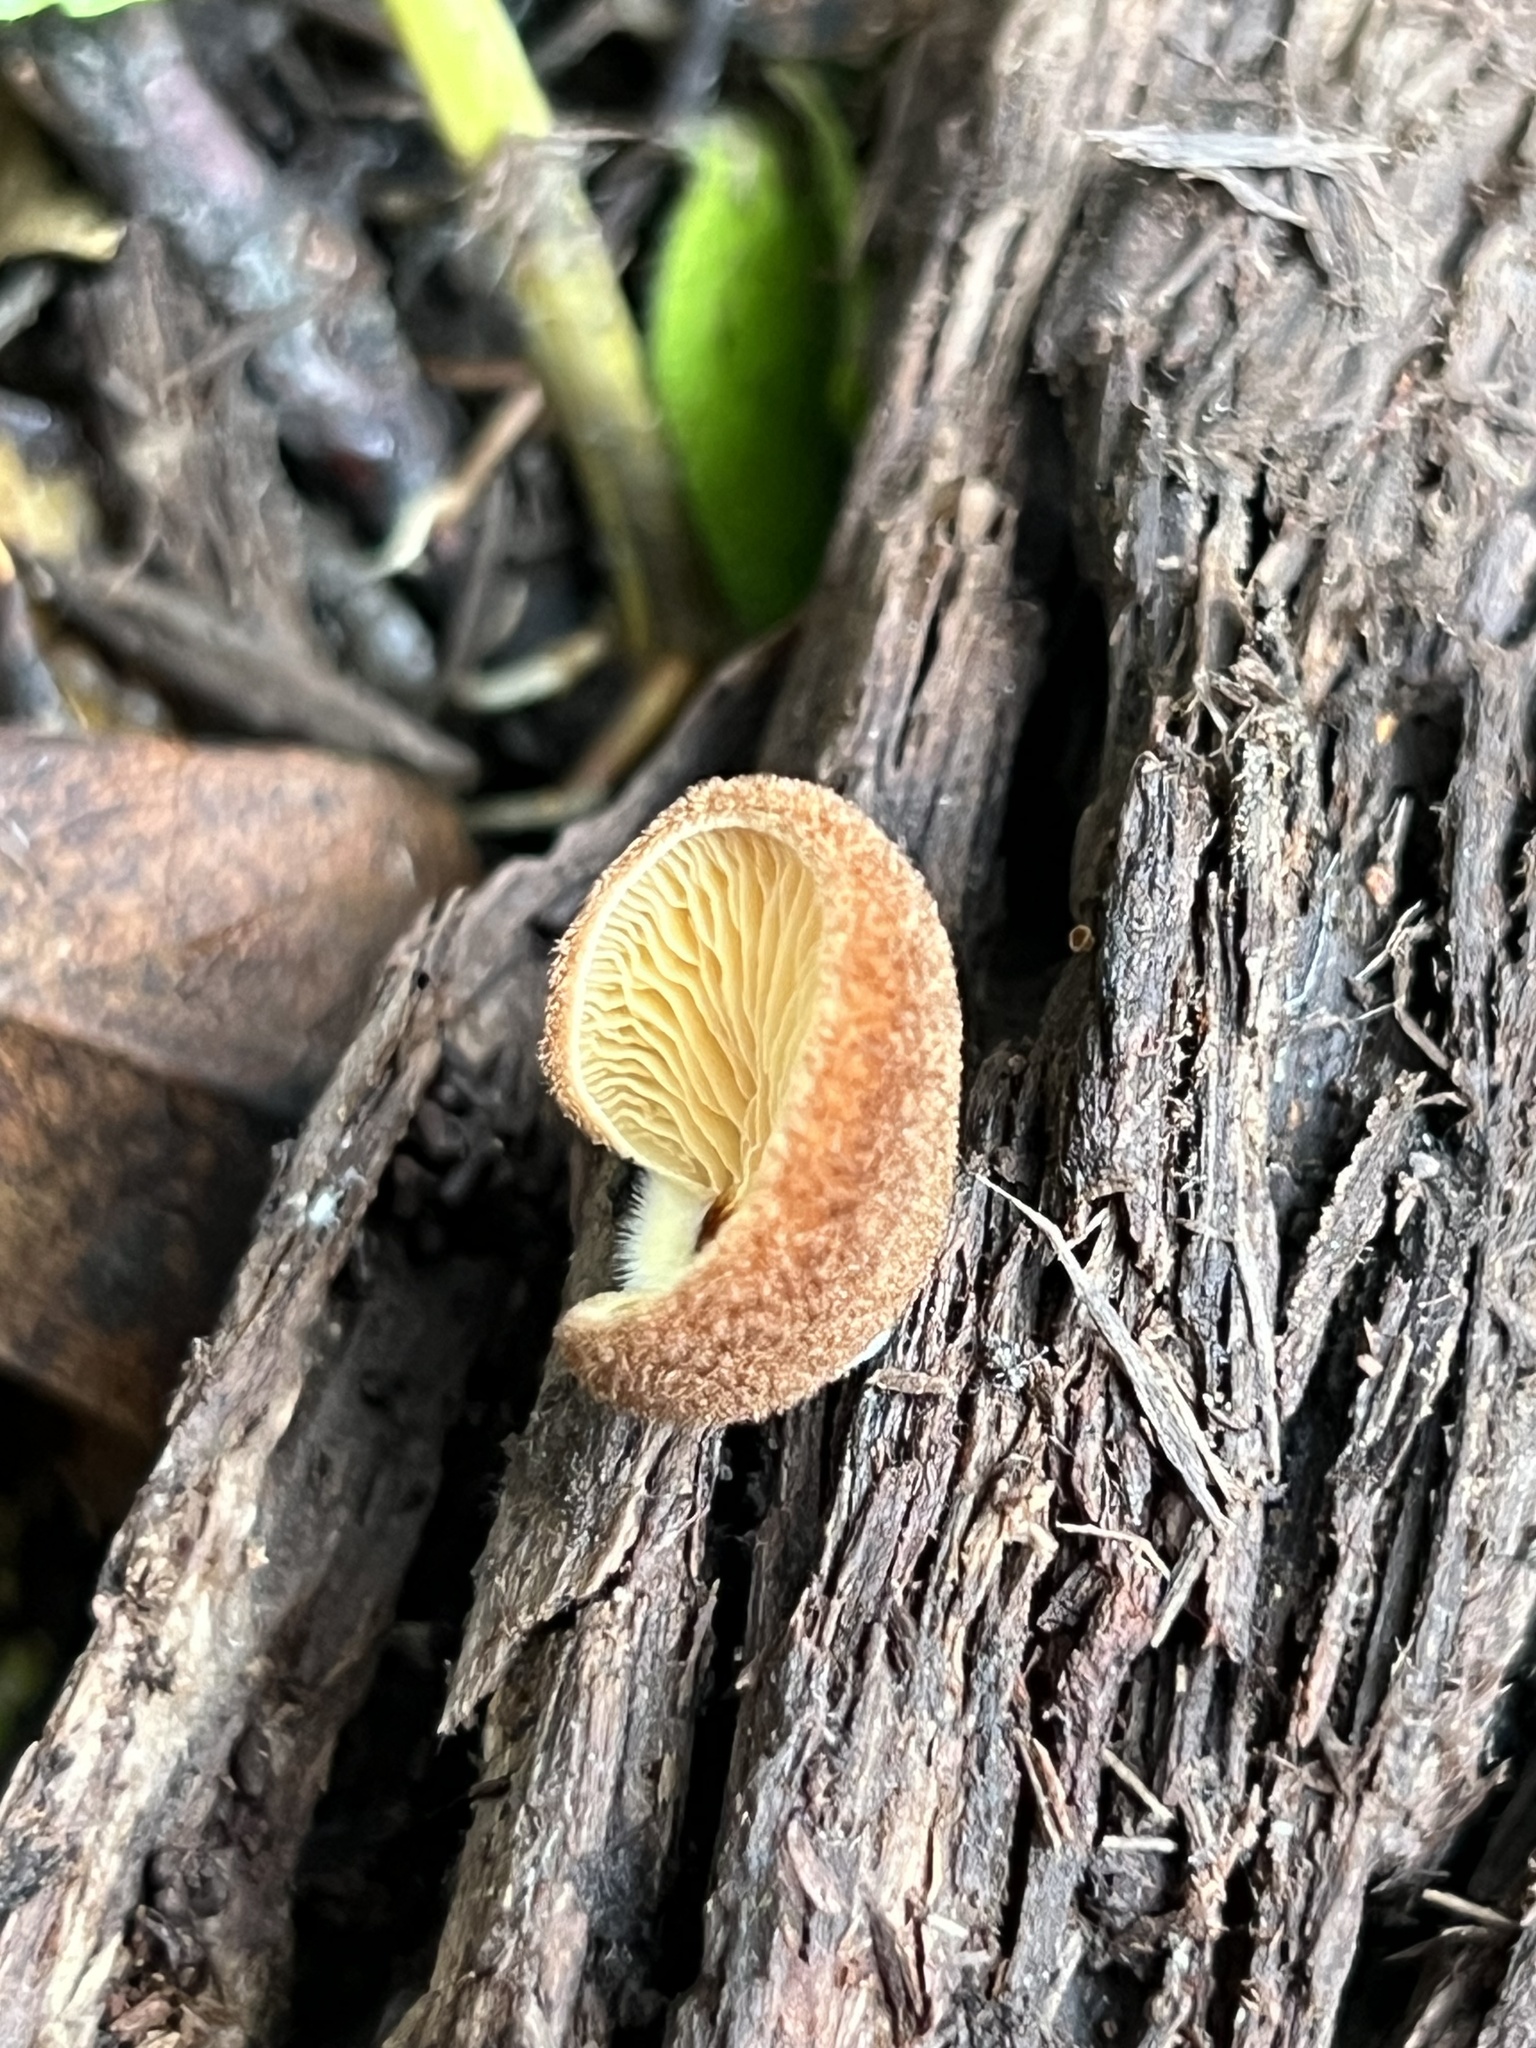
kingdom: Fungi
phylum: Basidiomycota
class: Agaricomycetes
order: Agaricales
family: Crepidotaceae
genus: Crepidotus
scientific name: Crepidotus crocophyllus
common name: Saffron oysterling
